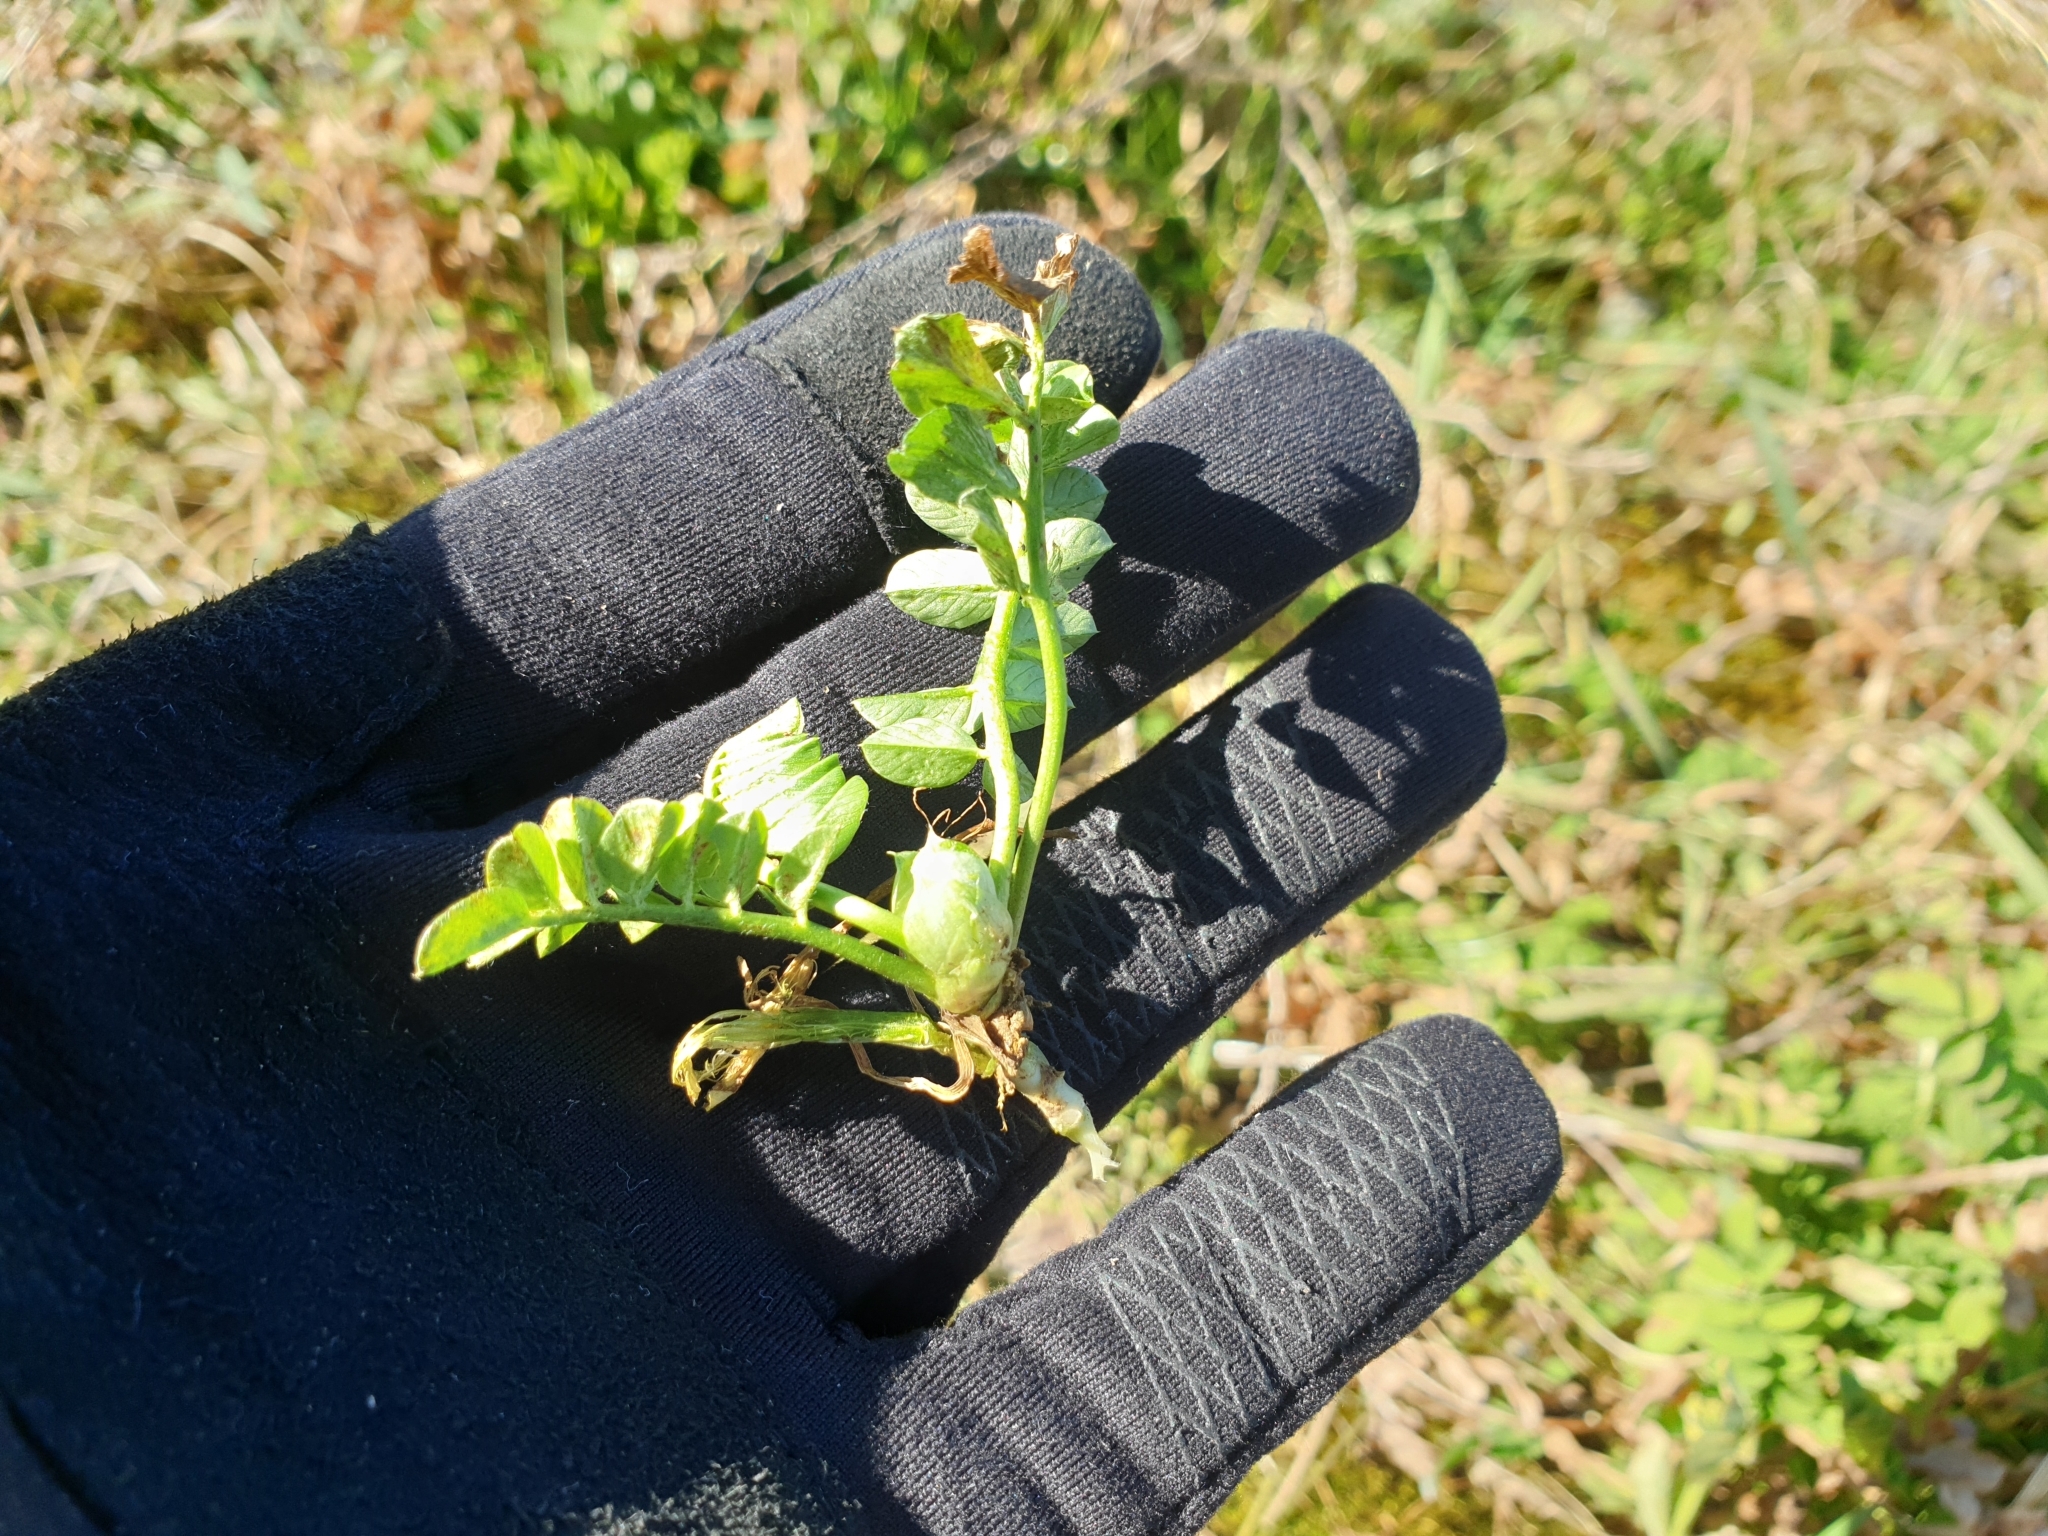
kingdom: Plantae
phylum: Tracheophyta
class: Magnoliopsida
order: Fabales
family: Fabaceae
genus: Galega
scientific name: Galega officinalis
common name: Goat's-rue
